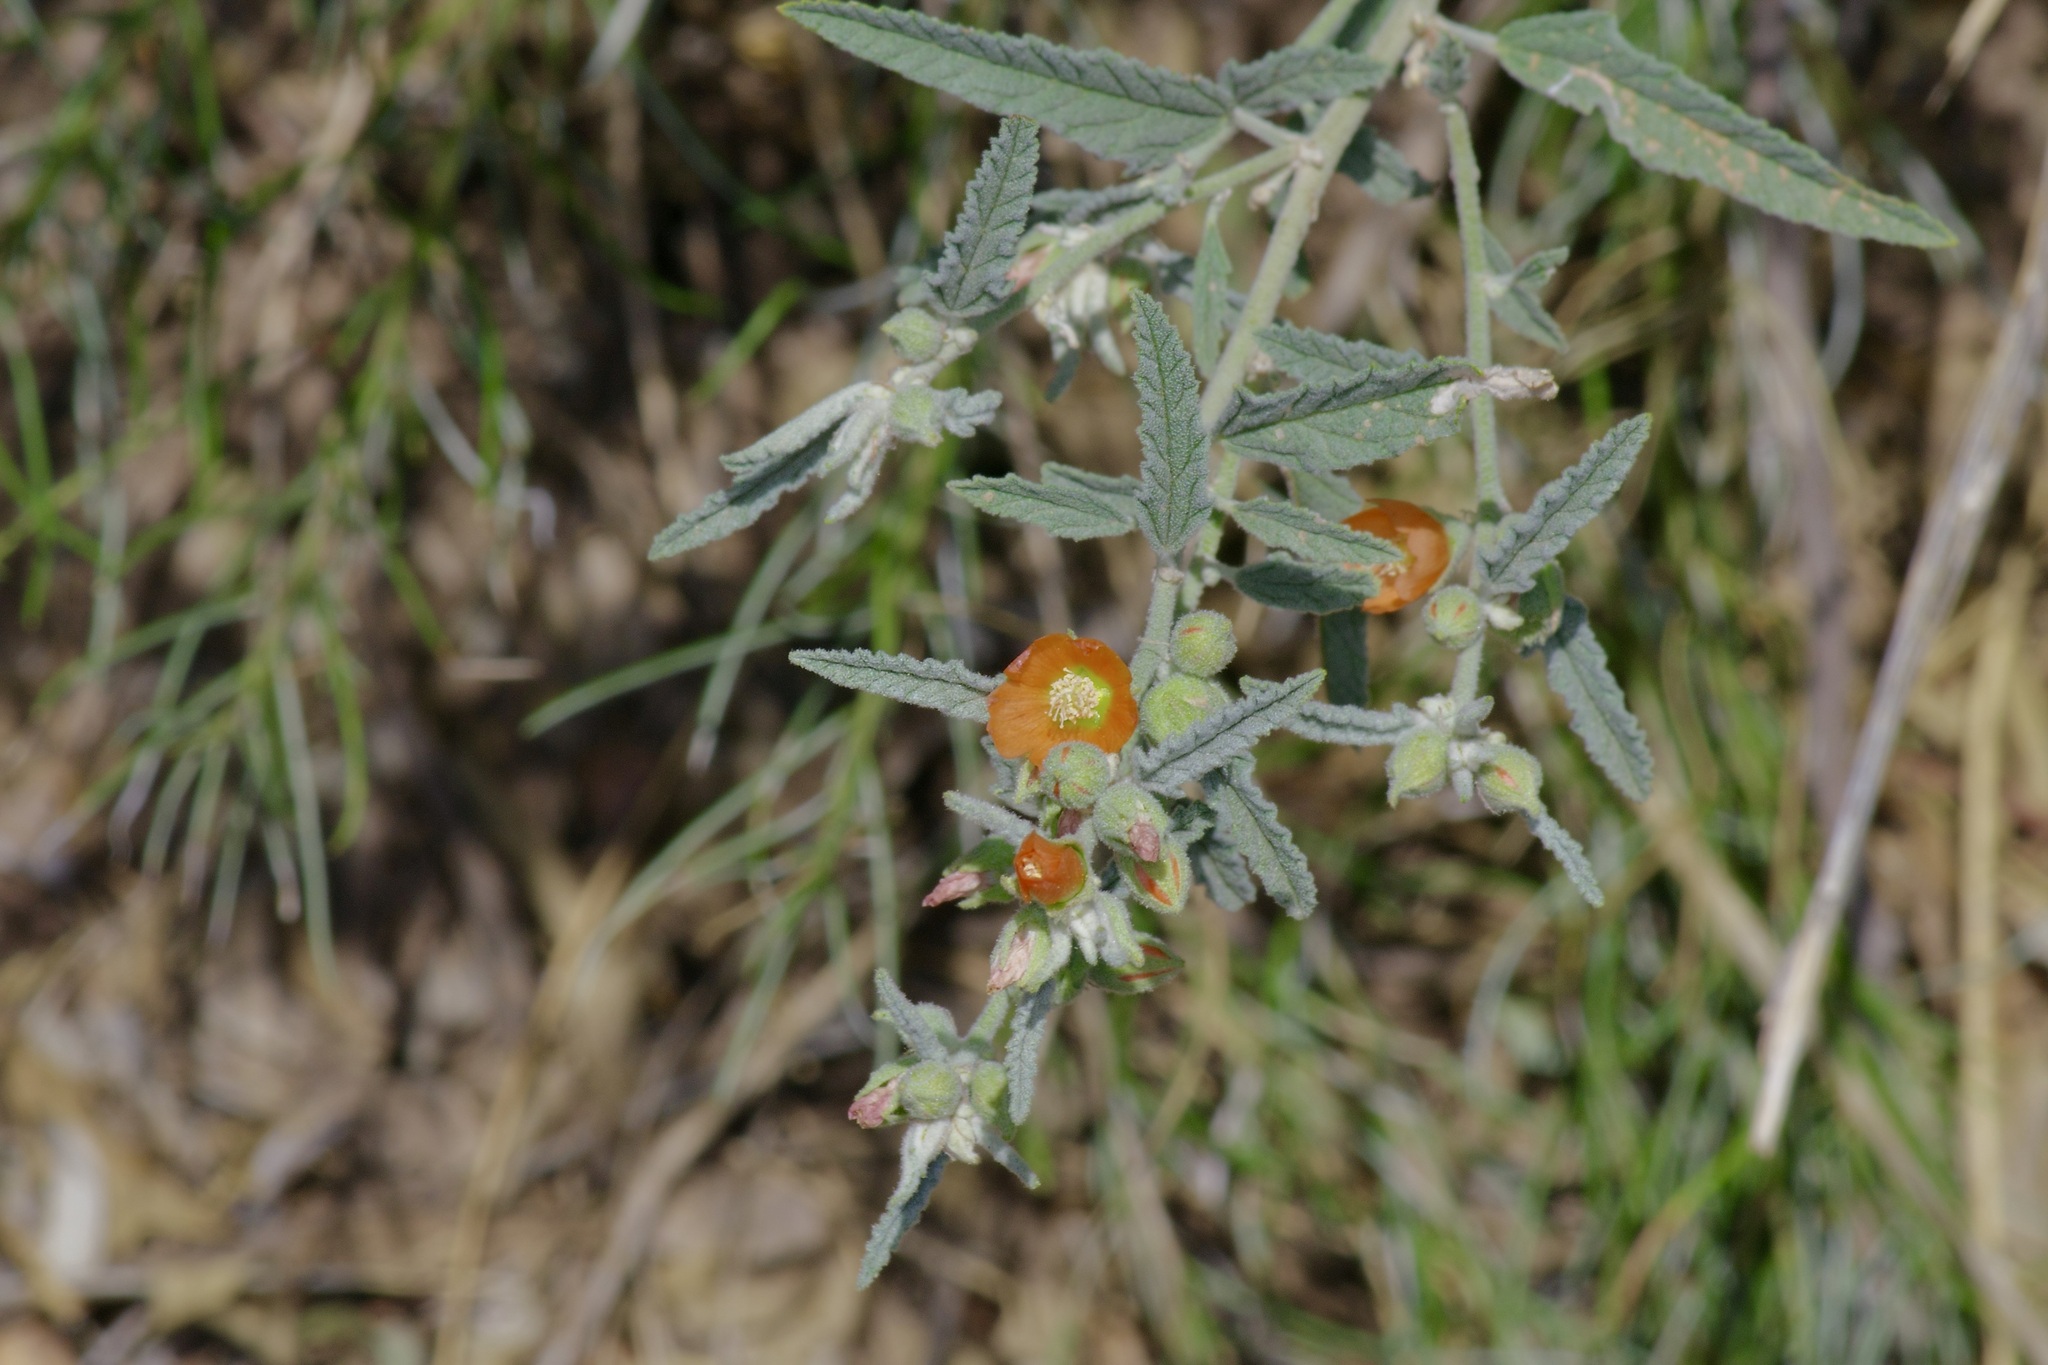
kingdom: Plantae
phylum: Tracheophyta
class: Magnoliopsida
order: Malvales
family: Malvaceae
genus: Sphaeralcea
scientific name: Sphaeralcea angustifolia
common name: Copper globe-mallow
